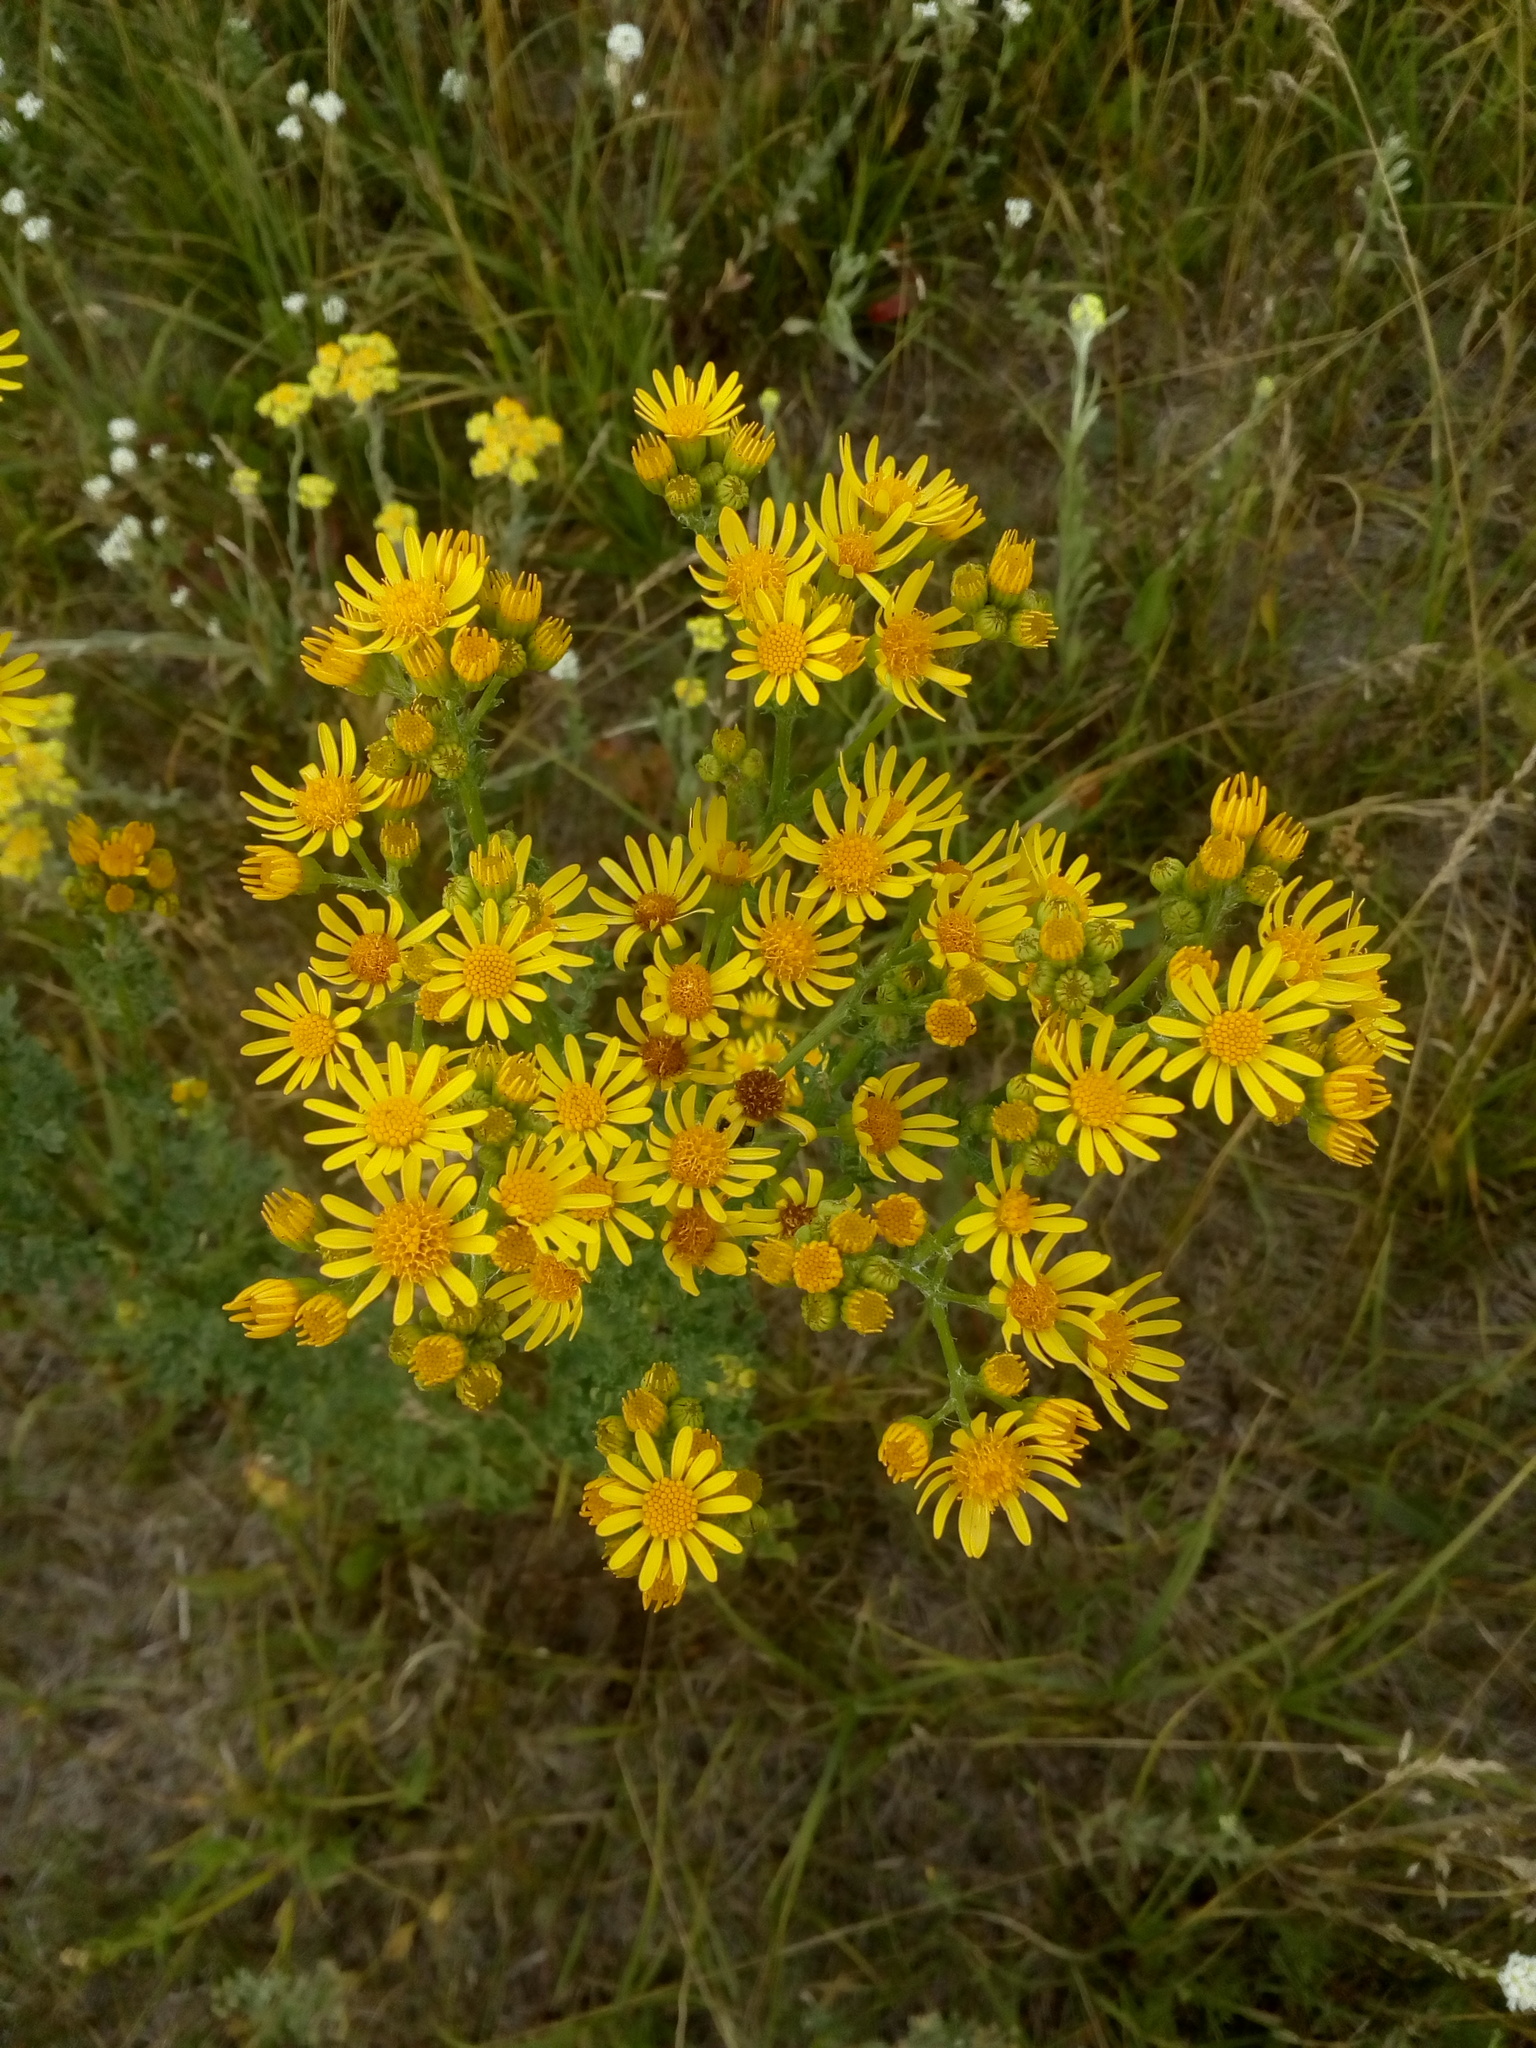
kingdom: Plantae
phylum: Tracheophyta
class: Magnoliopsida
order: Asterales
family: Asteraceae
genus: Jacobaea
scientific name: Jacobaea vulgaris
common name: Stinking willie
